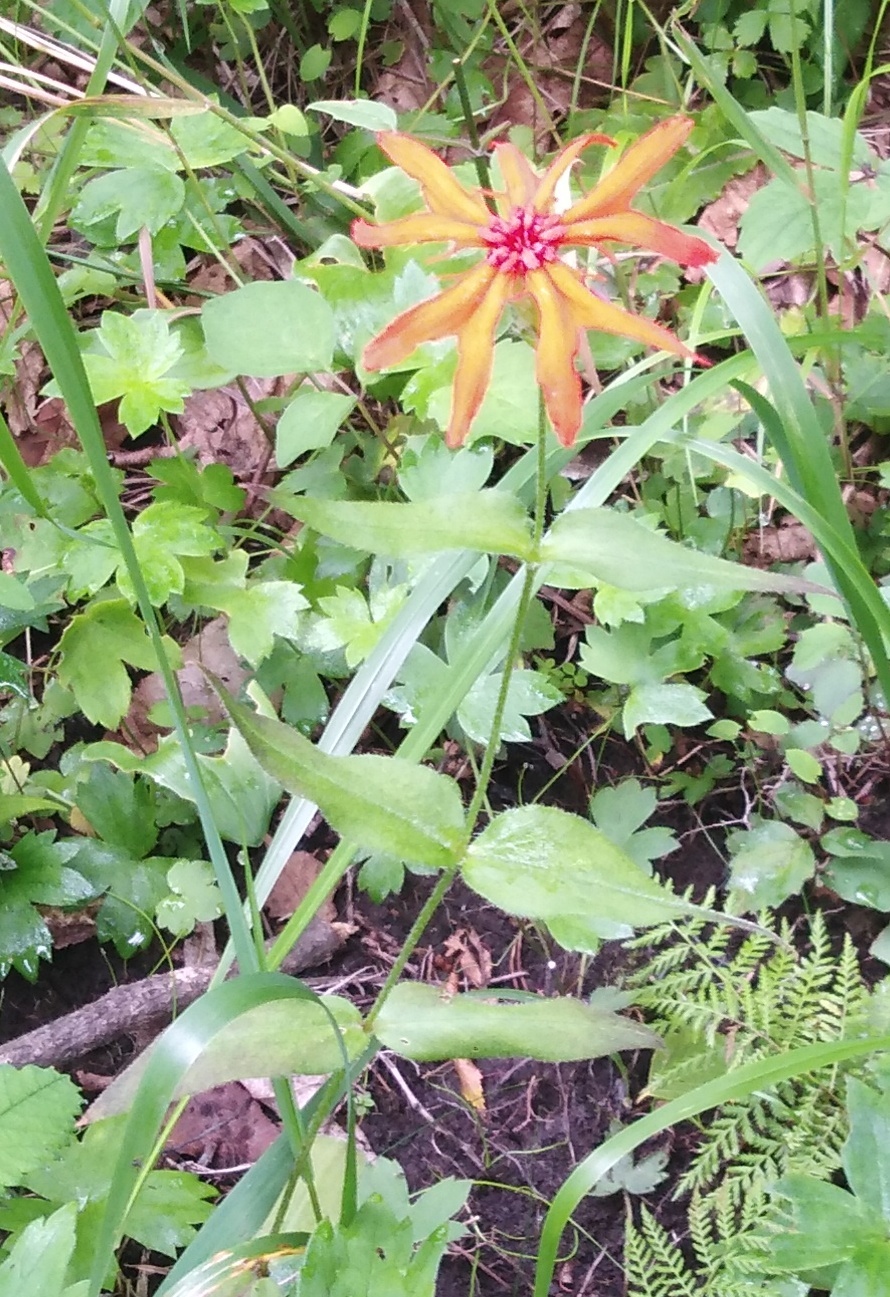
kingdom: Plantae
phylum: Tracheophyta
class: Magnoliopsida
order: Caryophyllales
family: Caryophyllaceae
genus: Silene
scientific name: Silene banksia
